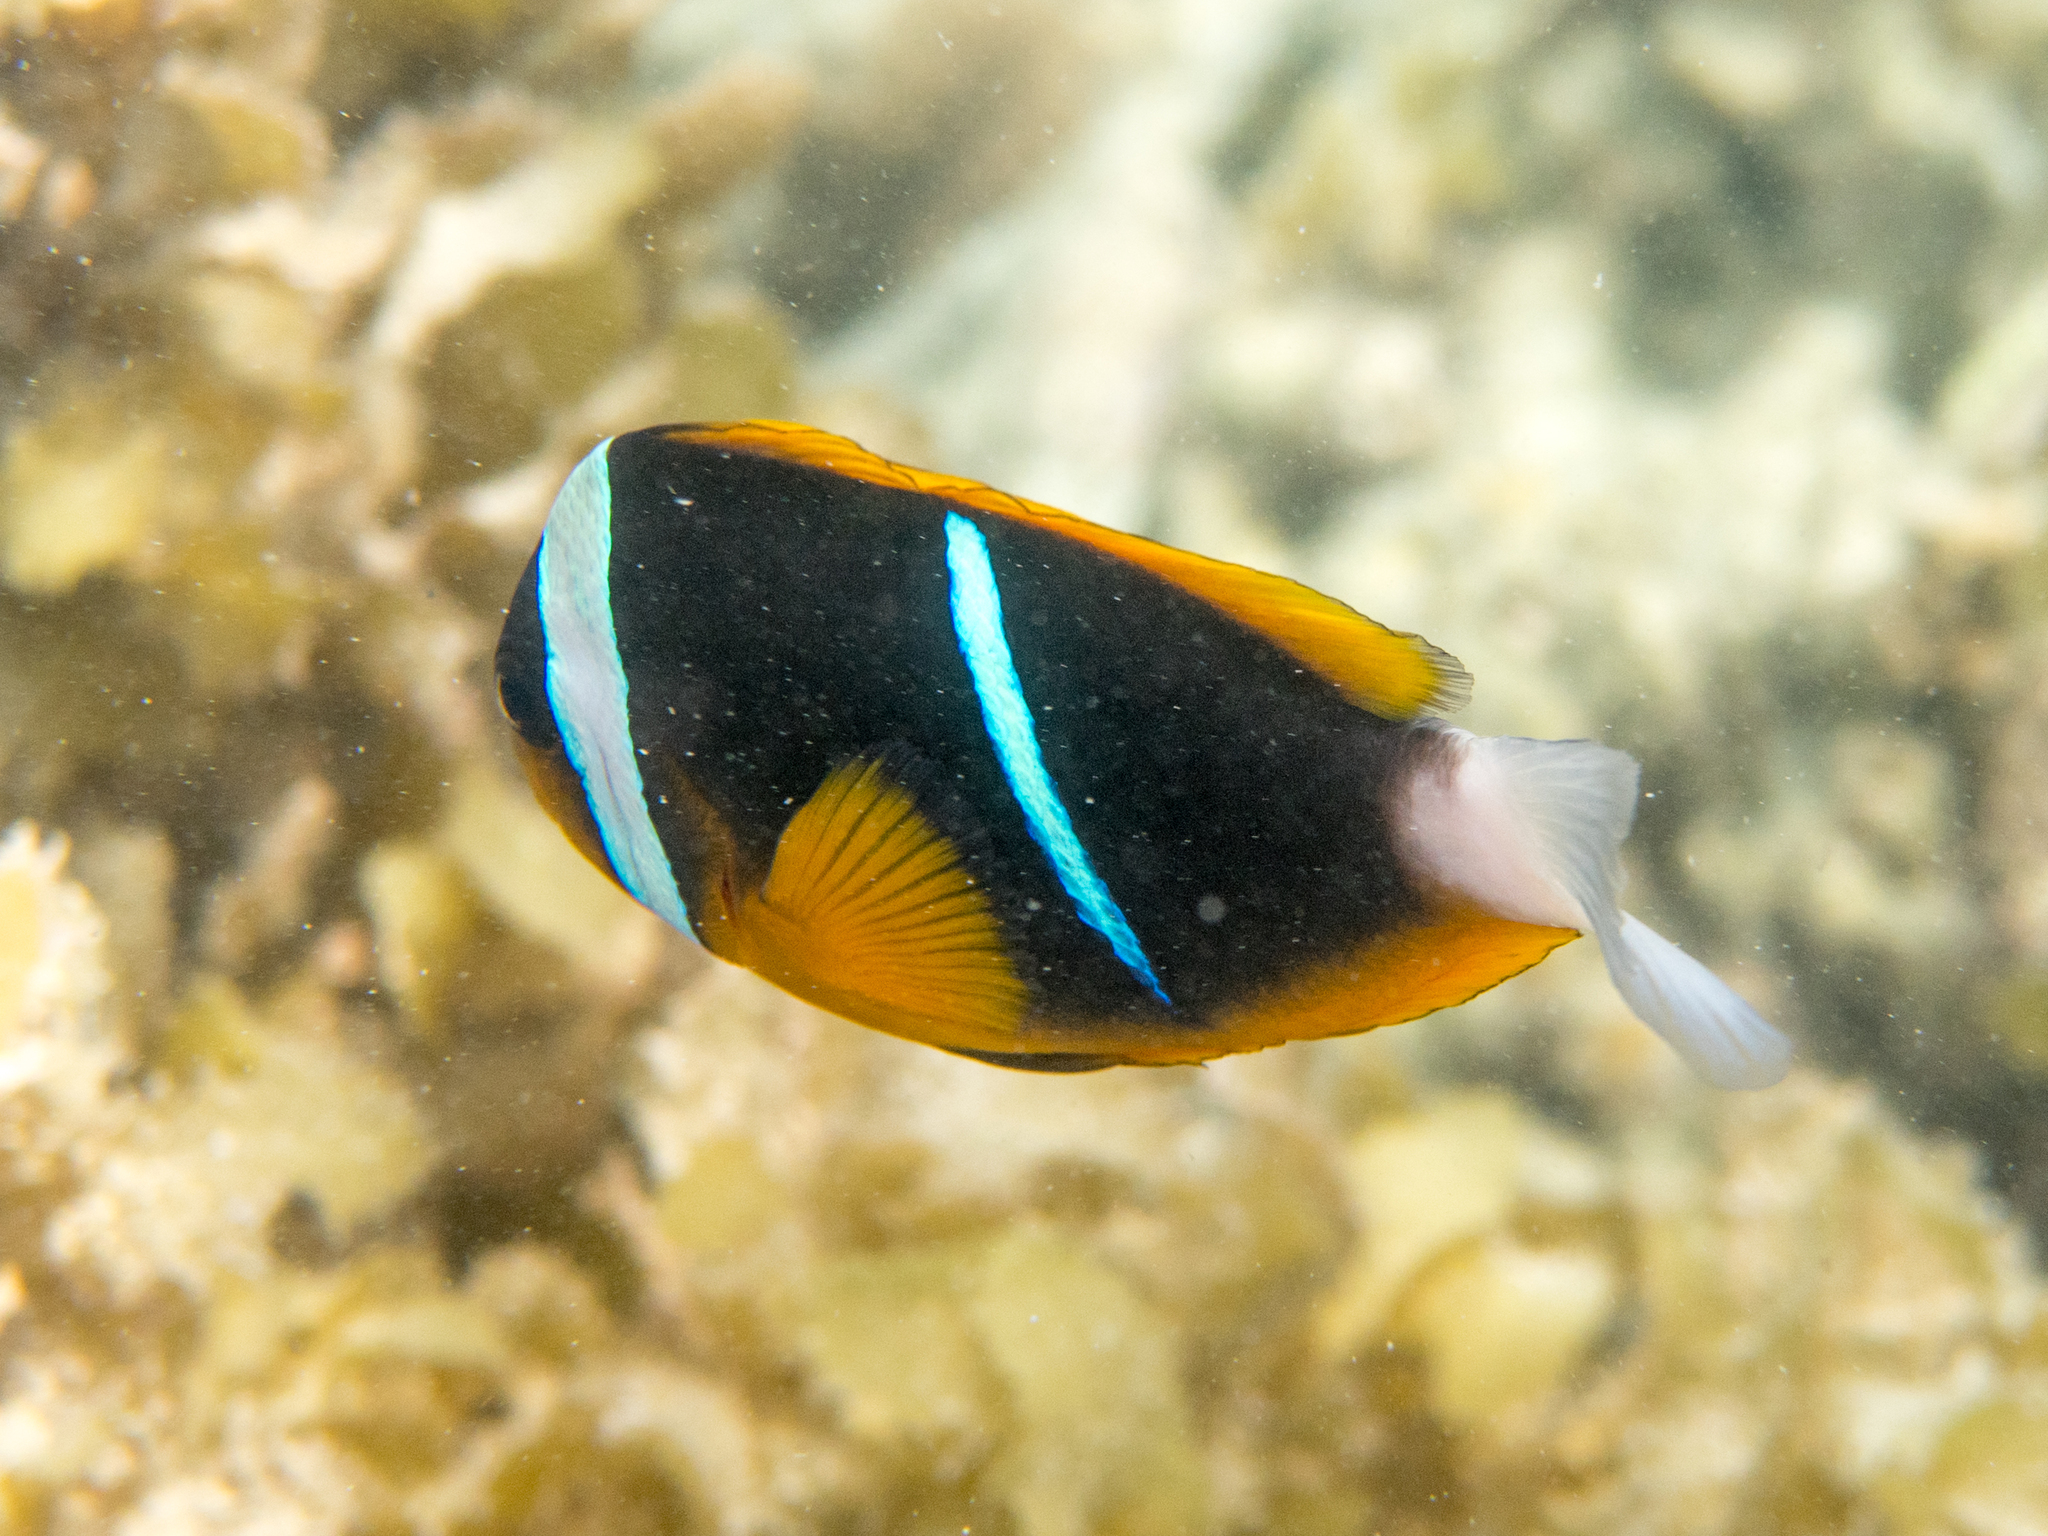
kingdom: Animalia
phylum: Chordata
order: Perciformes
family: Pomacentridae
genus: Amphiprion
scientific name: Amphiprion allardi
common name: Allard's anemonefish
